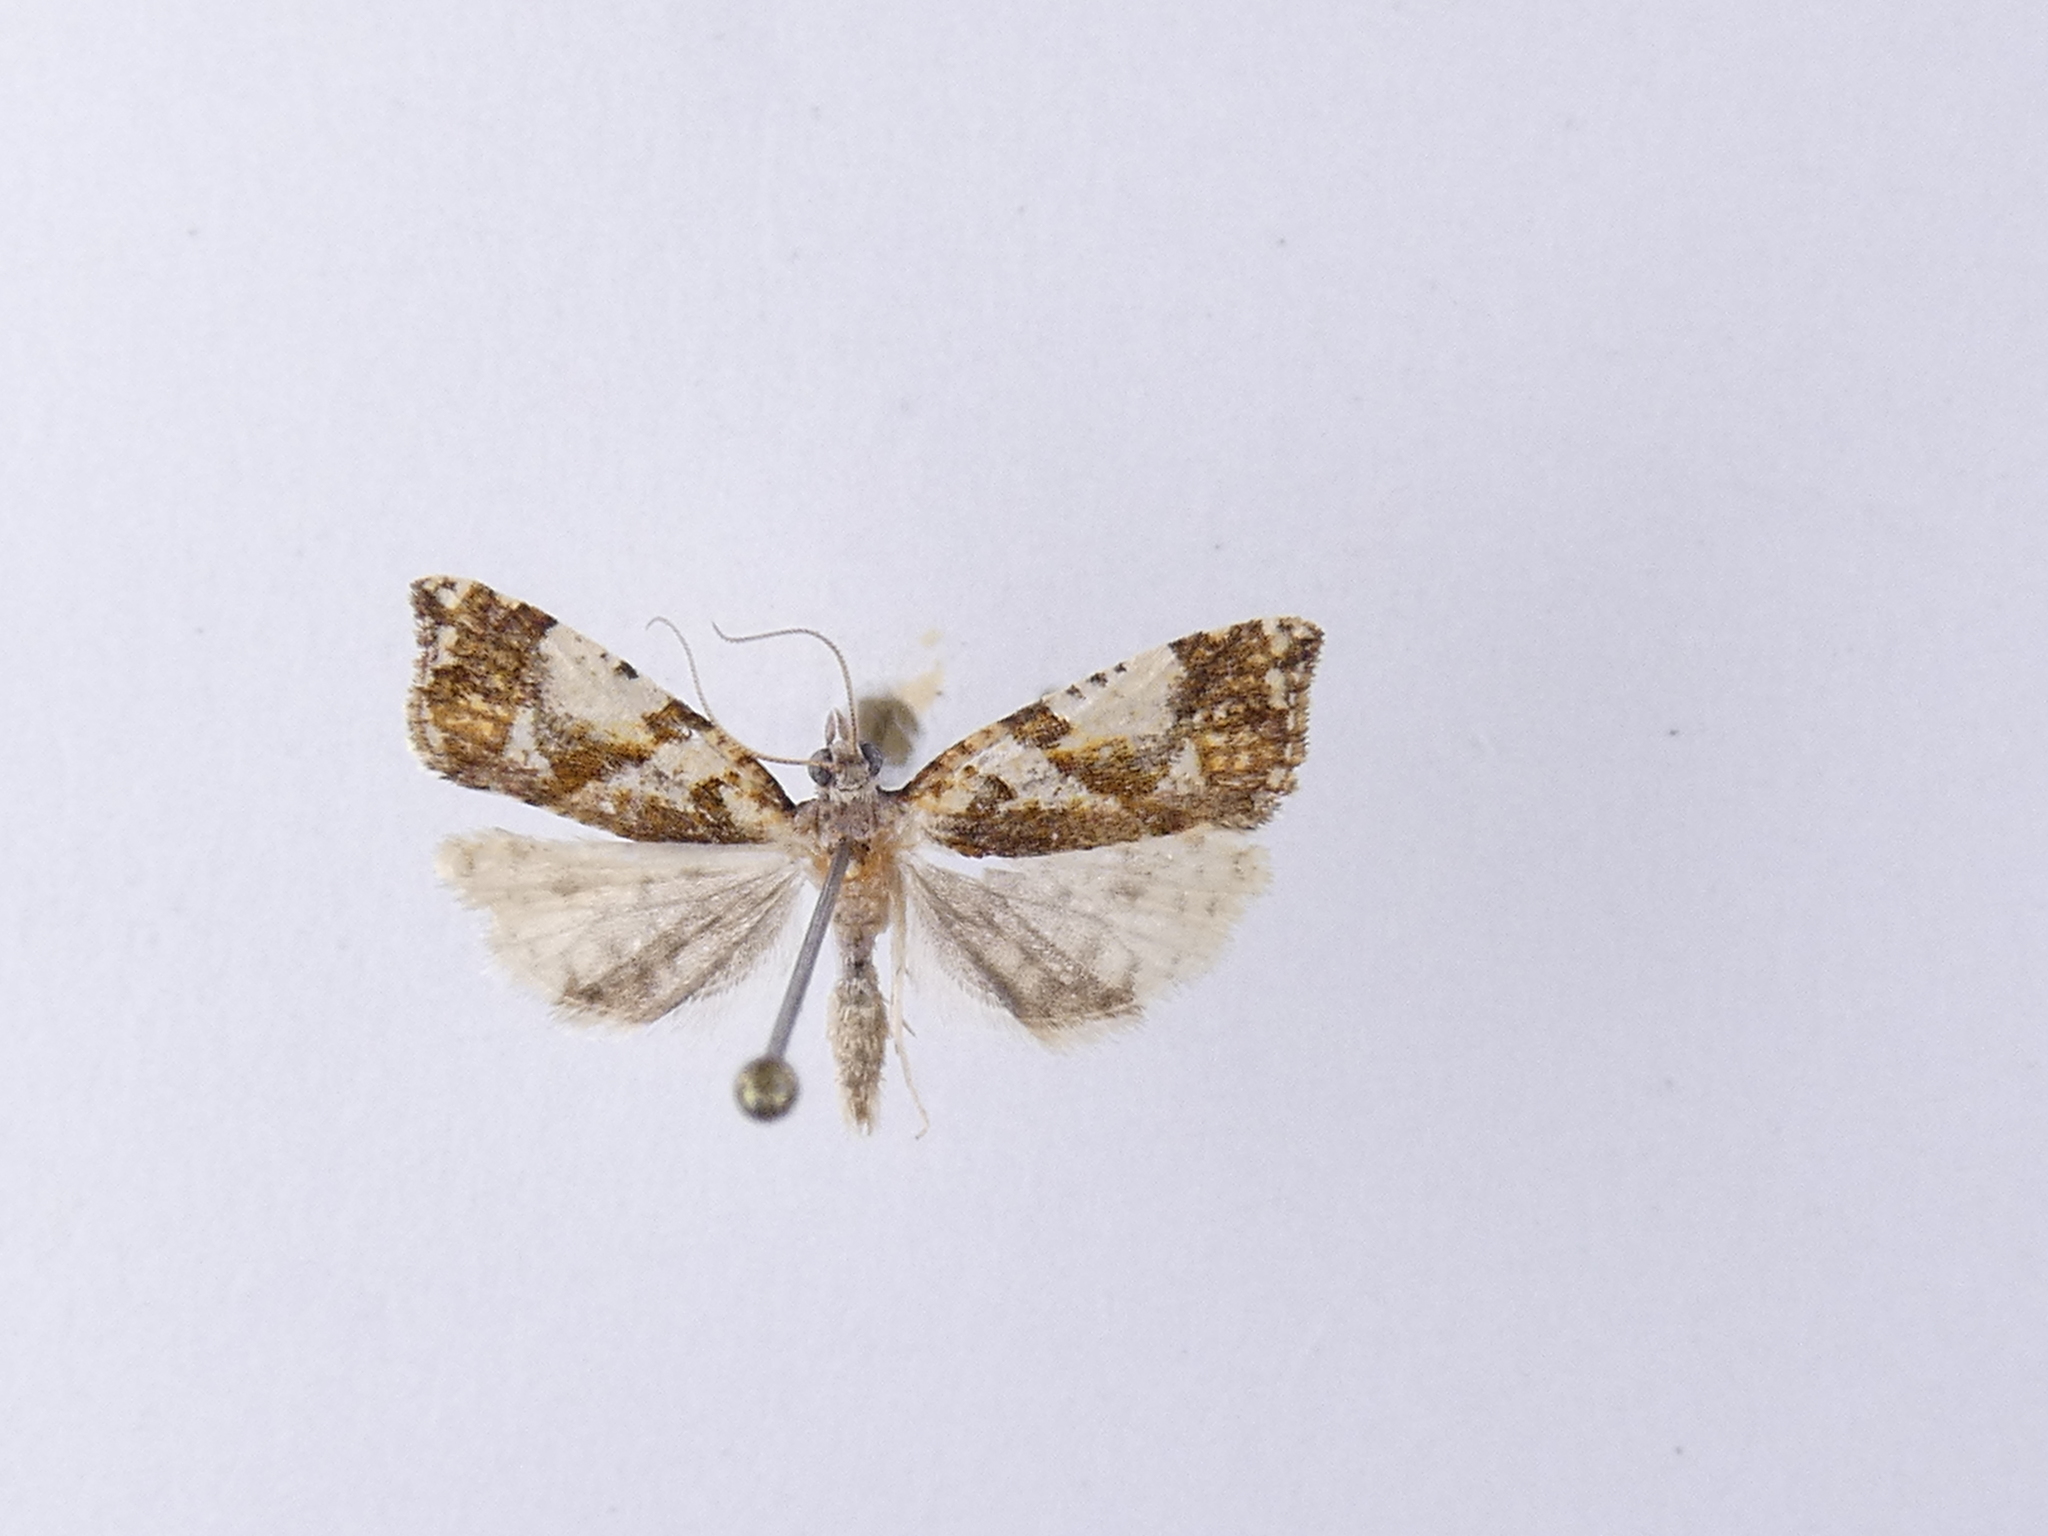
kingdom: Animalia
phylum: Arthropoda
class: Insecta
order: Lepidoptera
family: Tortricidae
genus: Pyrgotis
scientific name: Pyrgotis plagiatana
